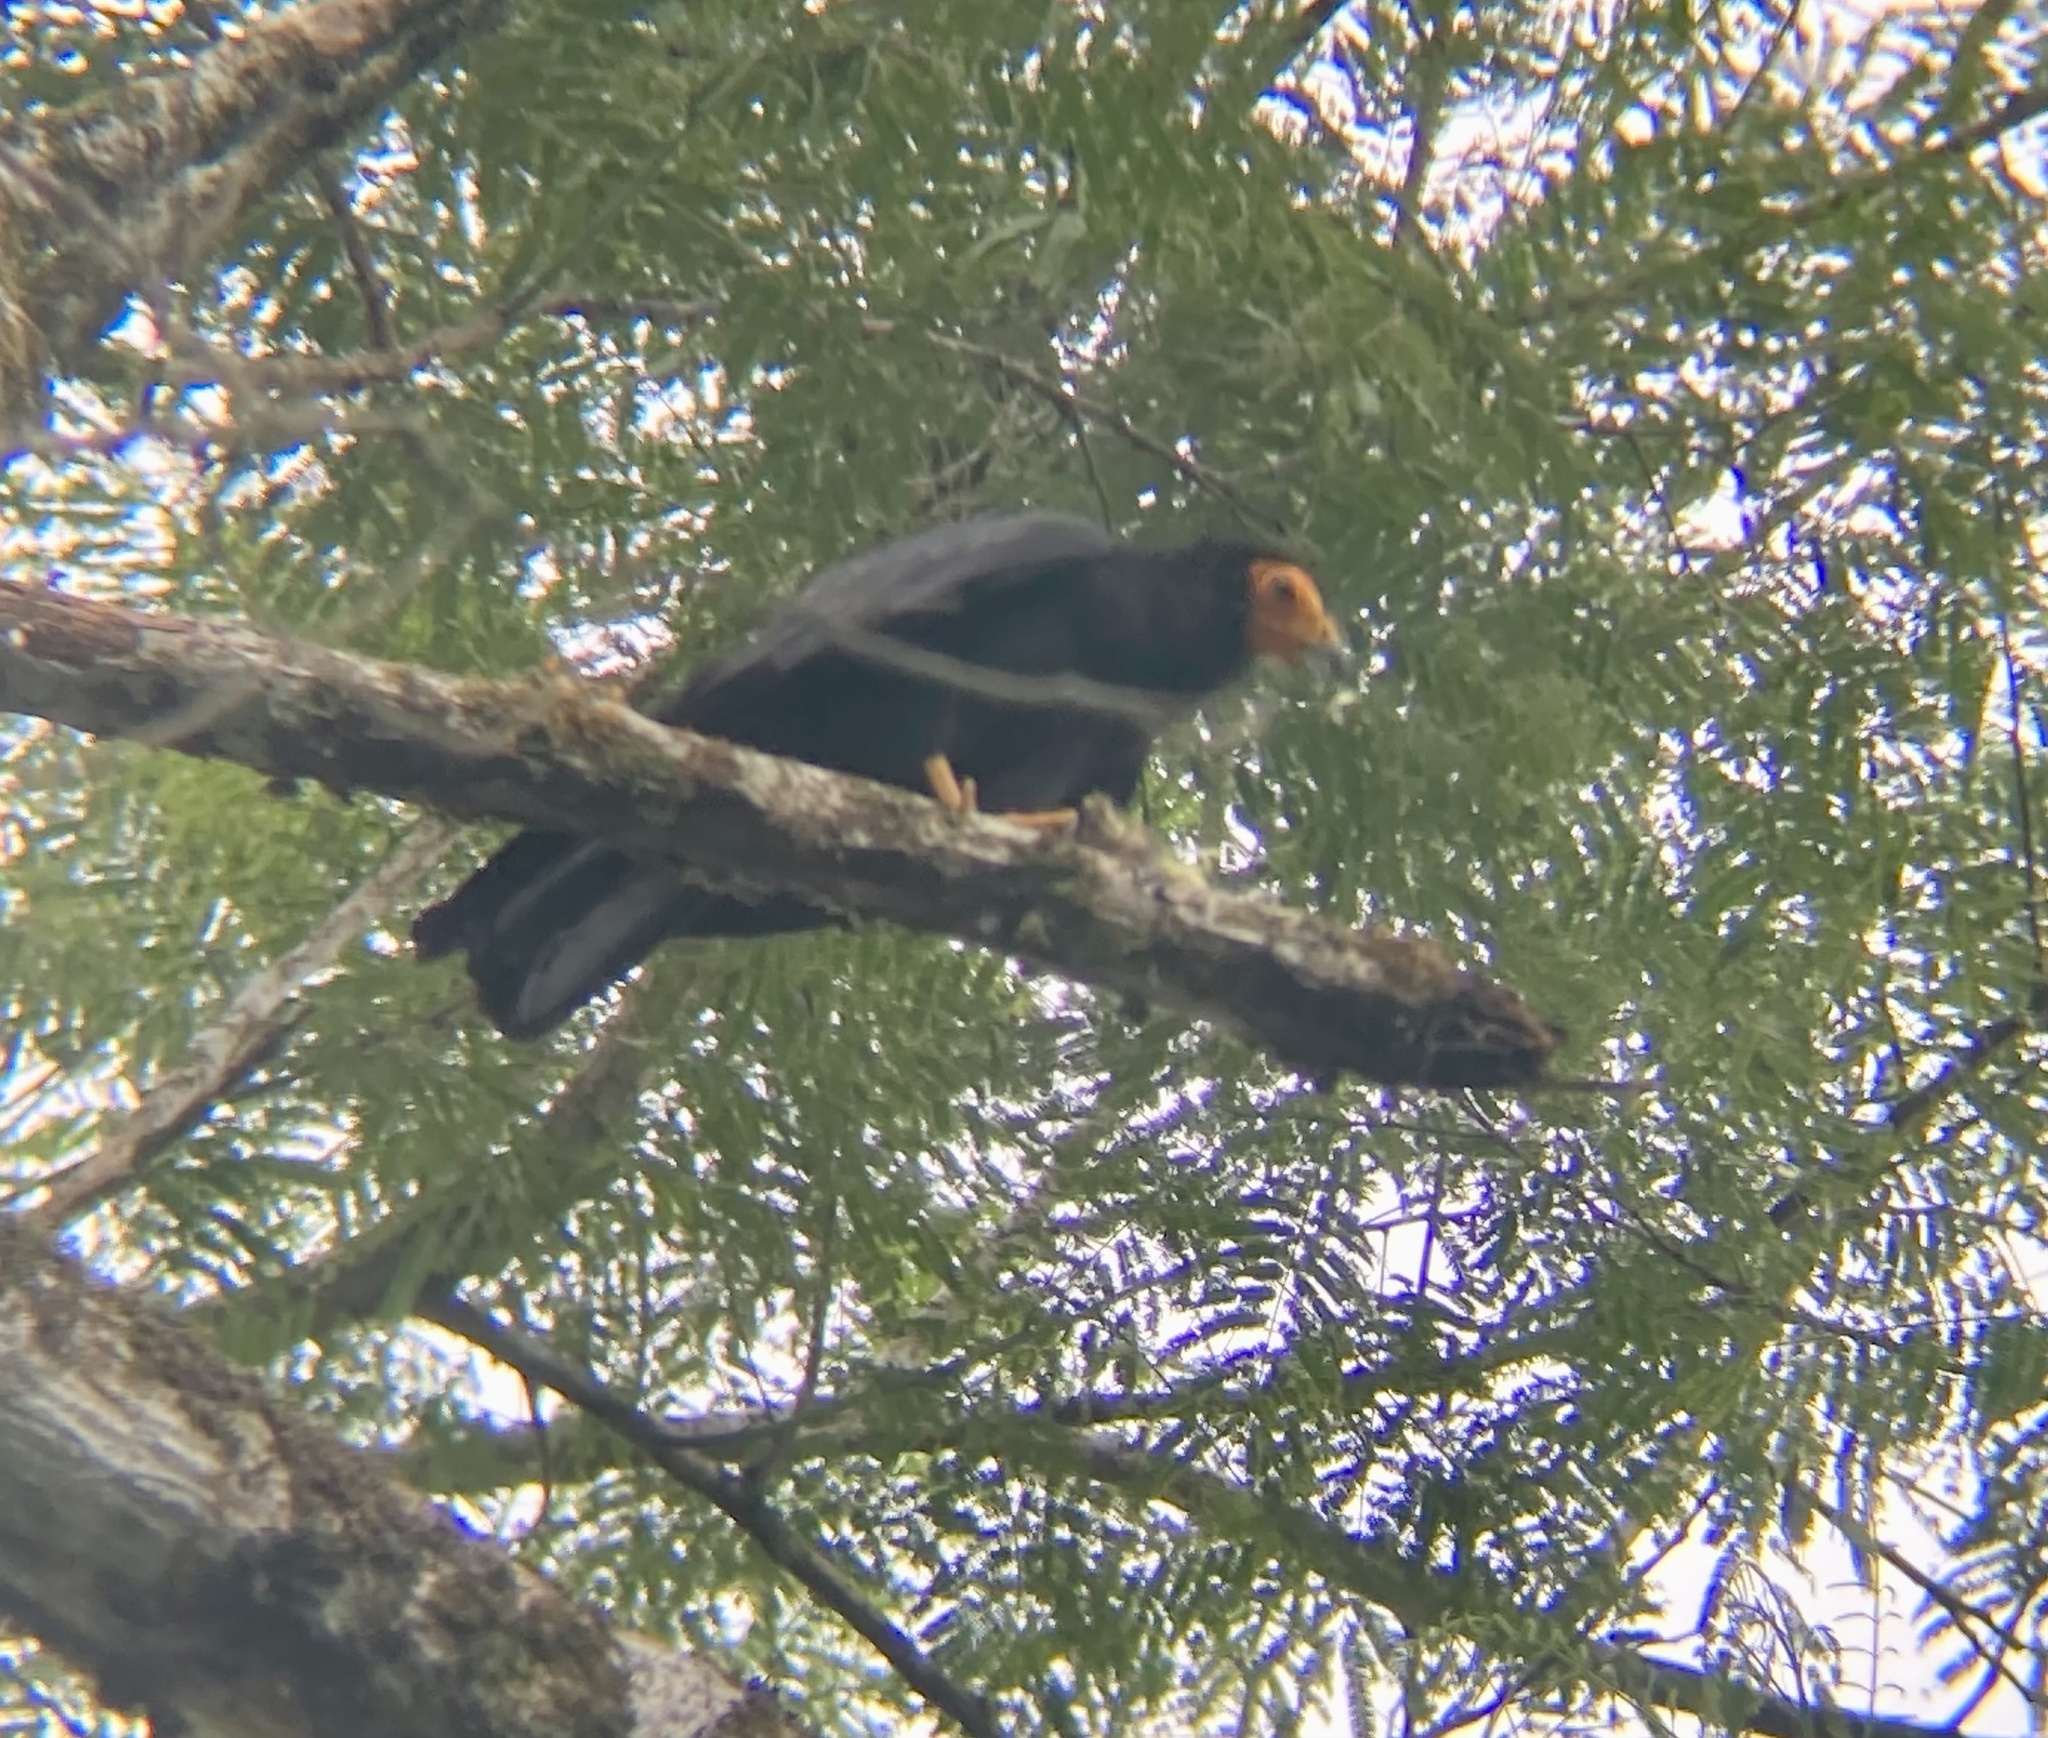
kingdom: Animalia
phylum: Chordata
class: Aves
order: Falconiformes
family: Falconidae
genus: Daptrius
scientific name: Daptrius ater
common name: Black caracara
